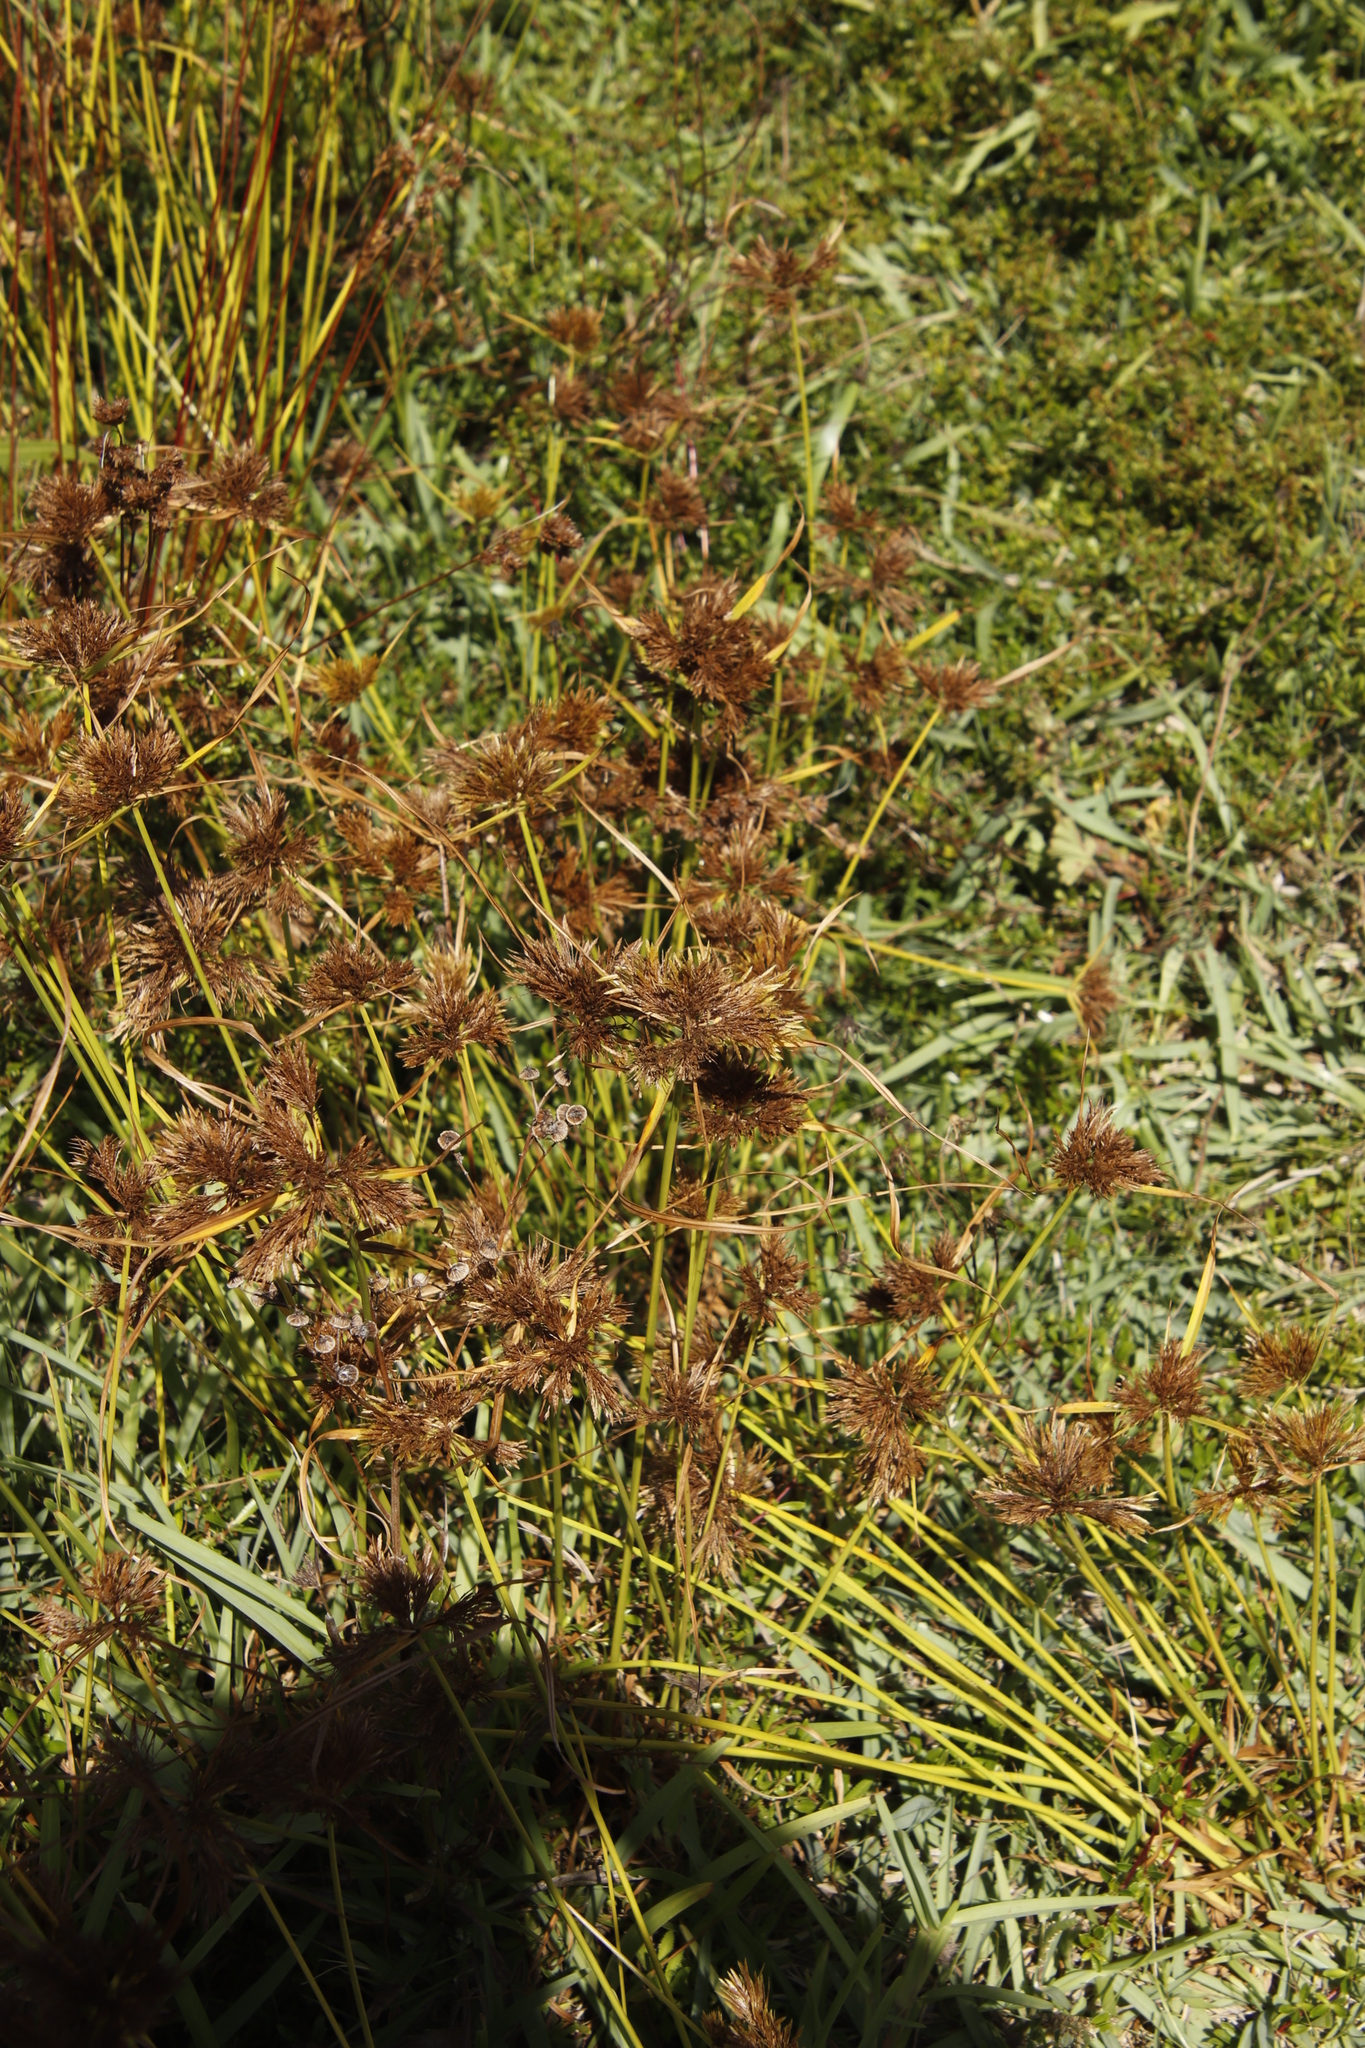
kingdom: Plantae
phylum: Tracheophyta
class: Liliopsida
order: Poales
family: Cyperaceae
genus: Cyperus
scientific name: Cyperus polystachyos
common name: Bunchy flat sedge
